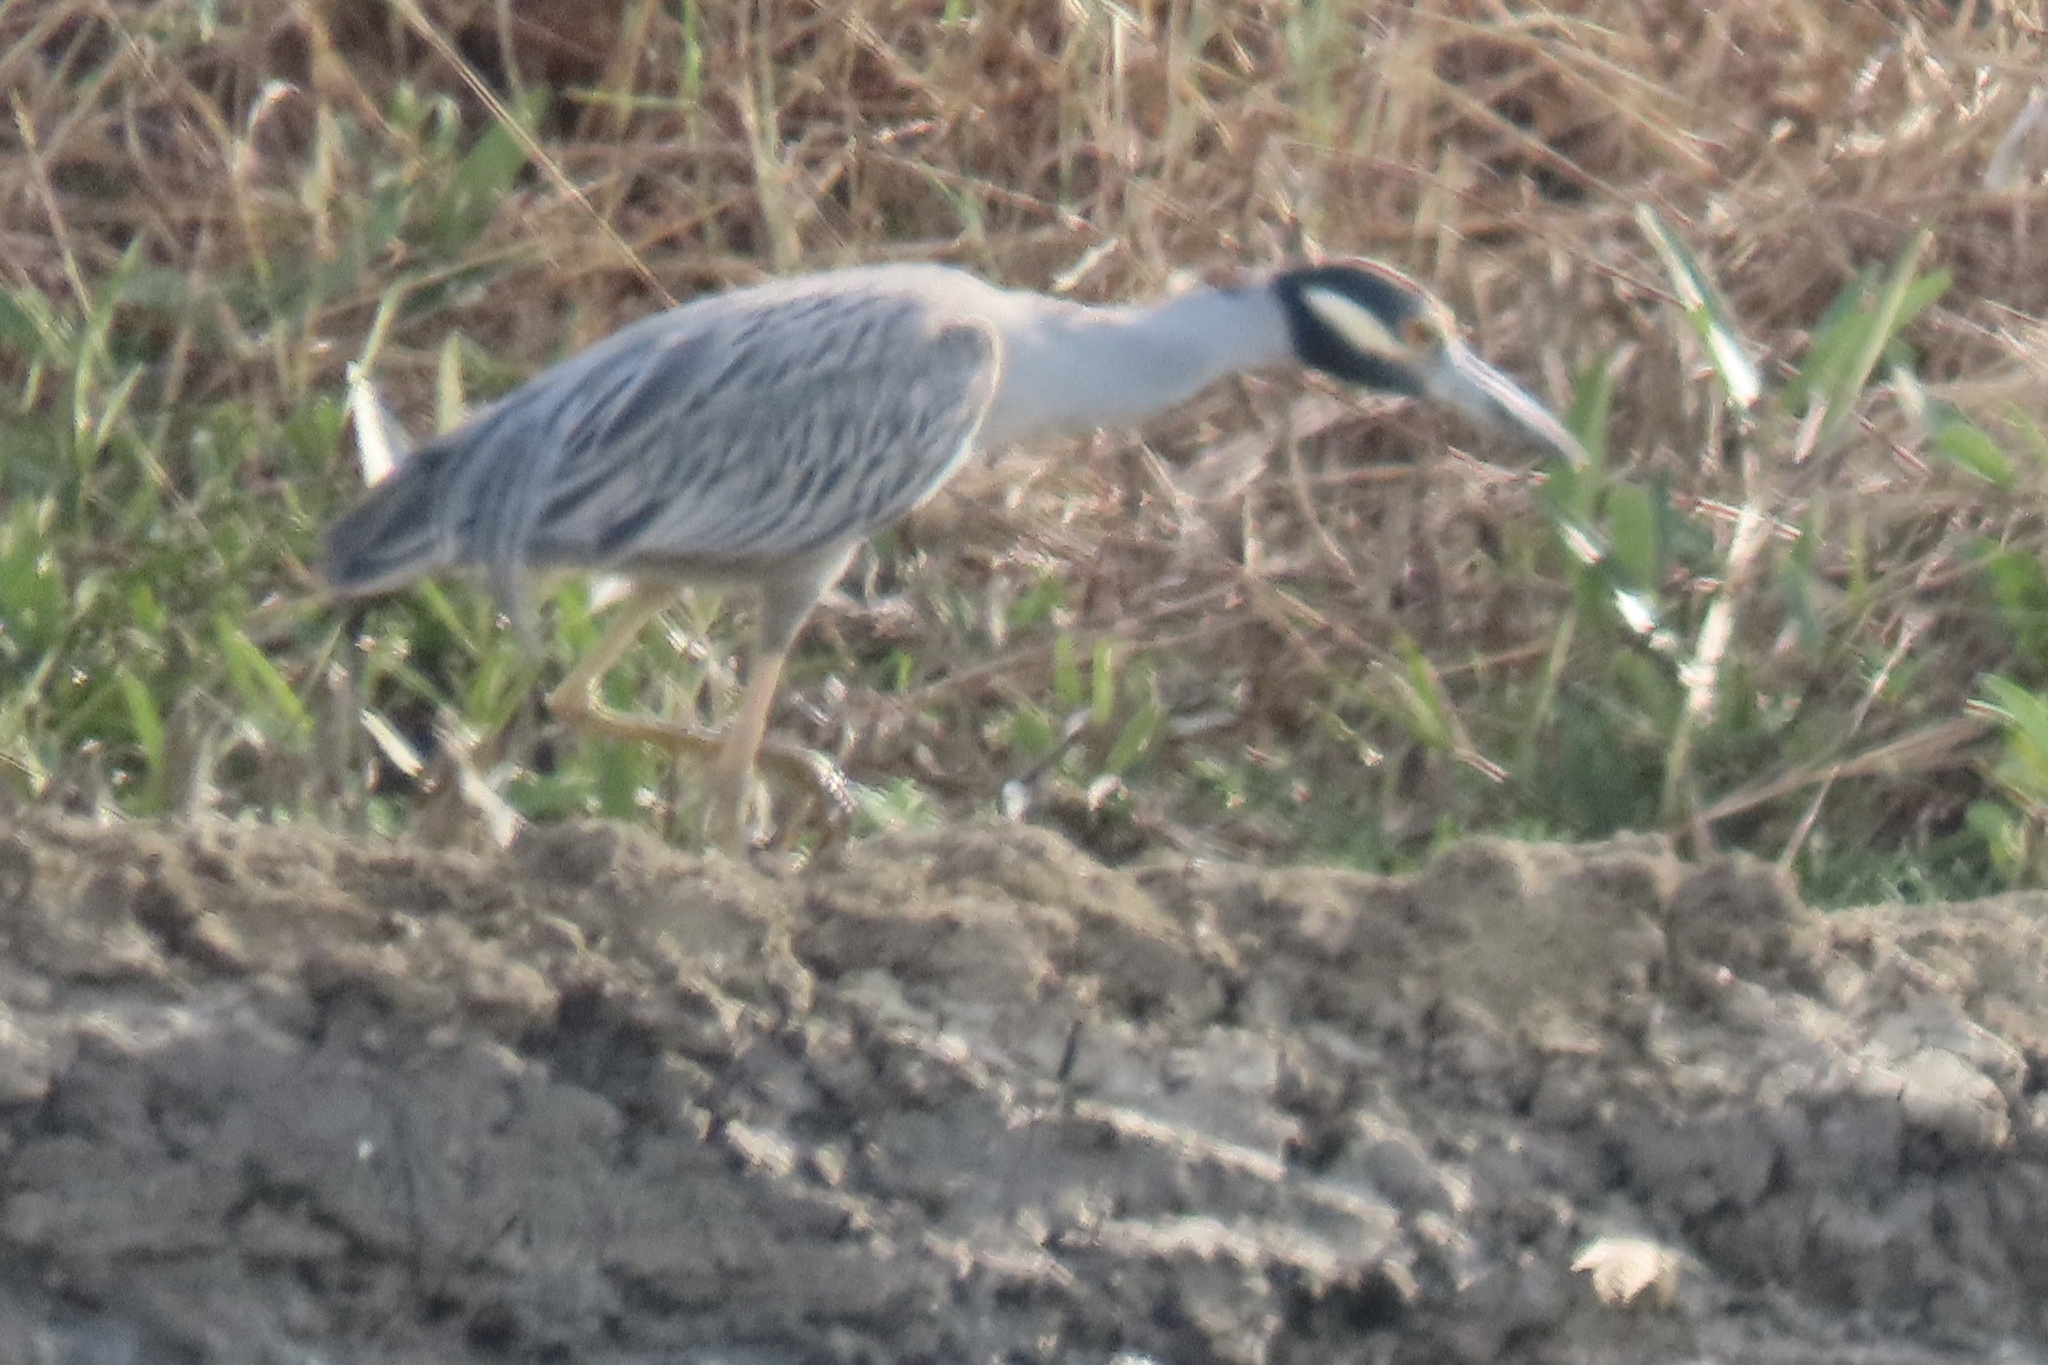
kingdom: Animalia
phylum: Chordata
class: Aves
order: Pelecaniformes
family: Ardeidae
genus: Nyctanassa
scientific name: Nyctanassa violacea
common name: Yellow-crowned night heron
